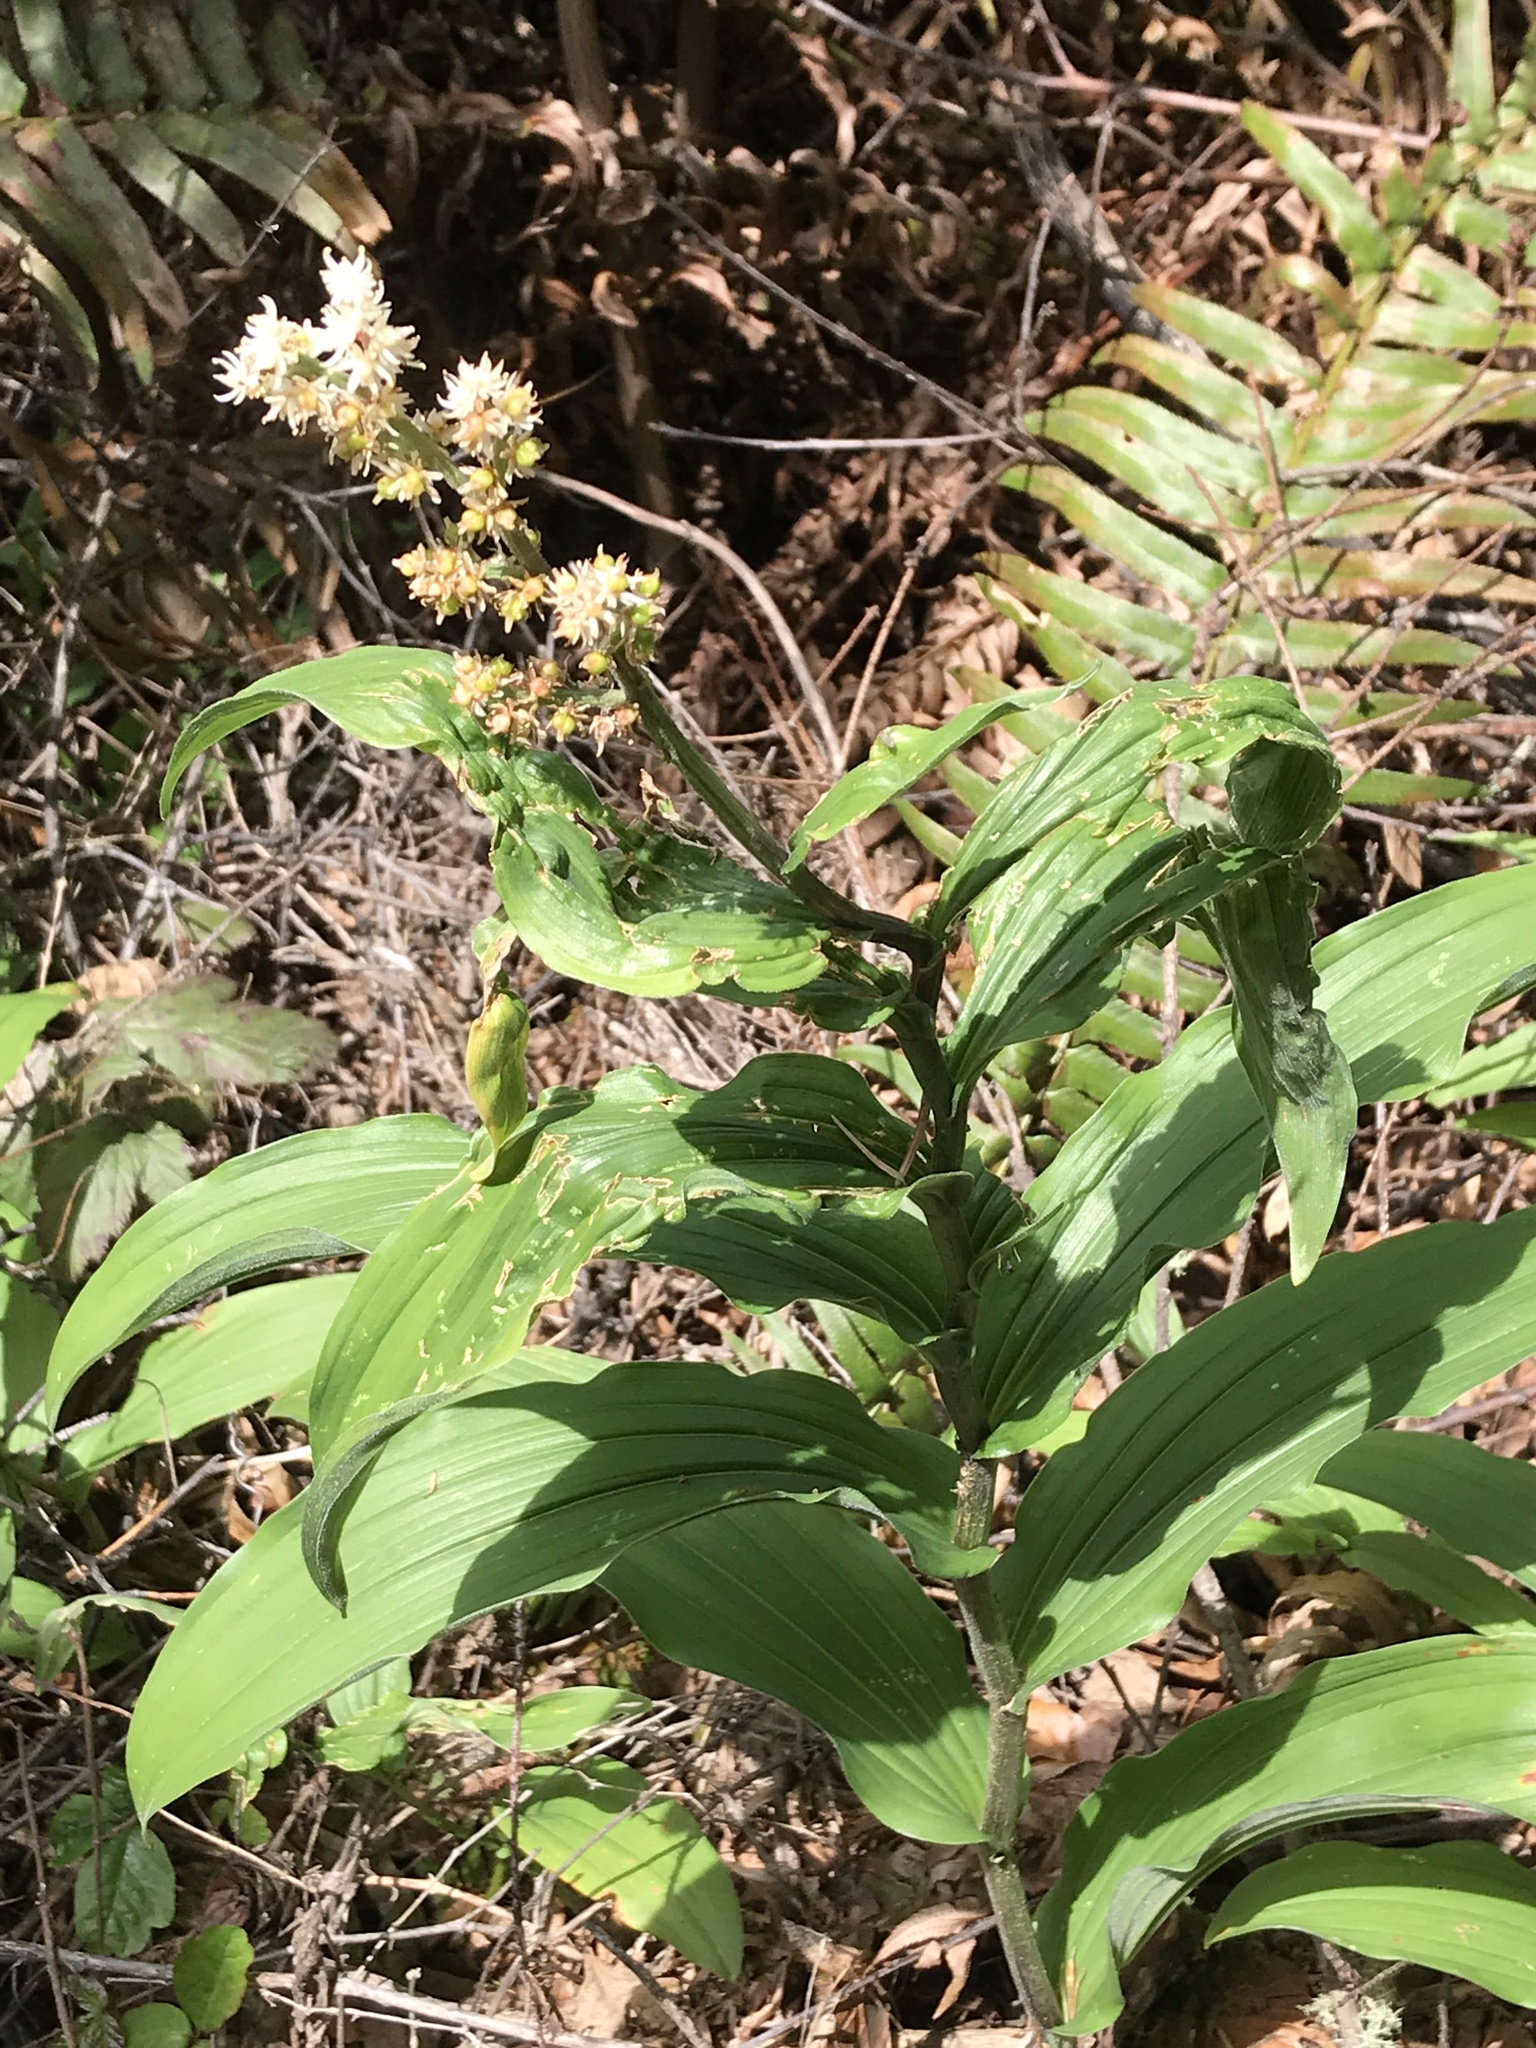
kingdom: Plantae
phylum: Tracheophyta
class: Liliopsida
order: Asparagales
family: Asparagaceae
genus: Maianthemum
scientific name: Maianthemum racemosum
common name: False spikenard
